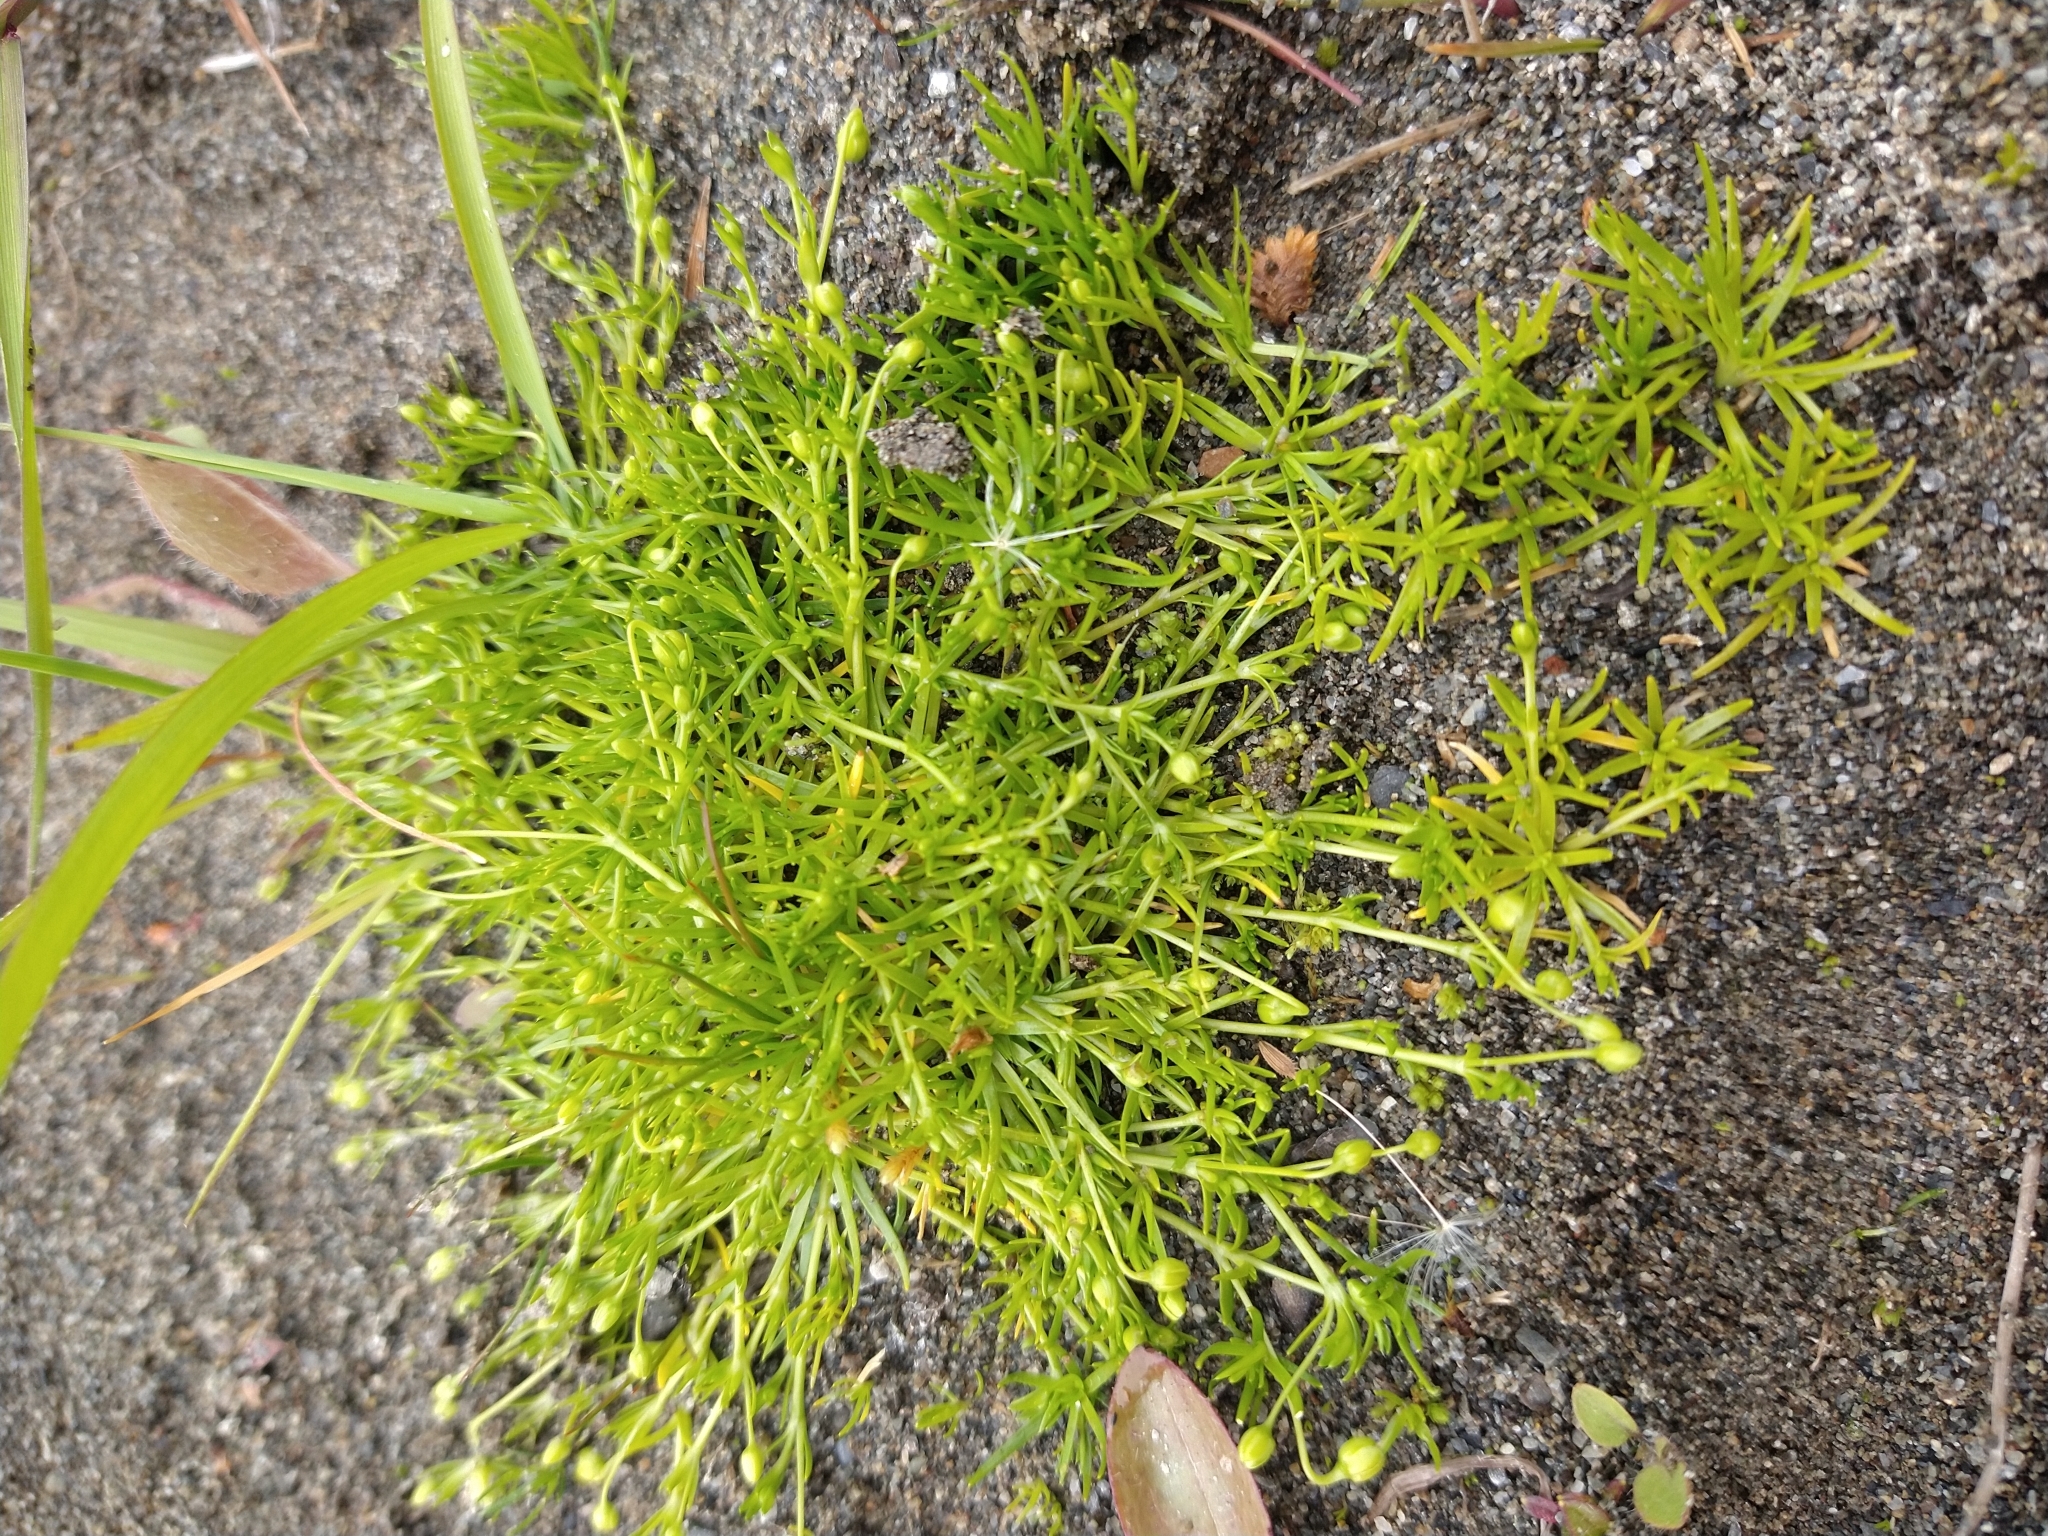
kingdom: Plantae
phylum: Tracheophyta
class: Magnoliopsida
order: Caryophyllales
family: Caryophyllaceae
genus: Sagina
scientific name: Sagina procumbens
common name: Procumbent pearlwort
